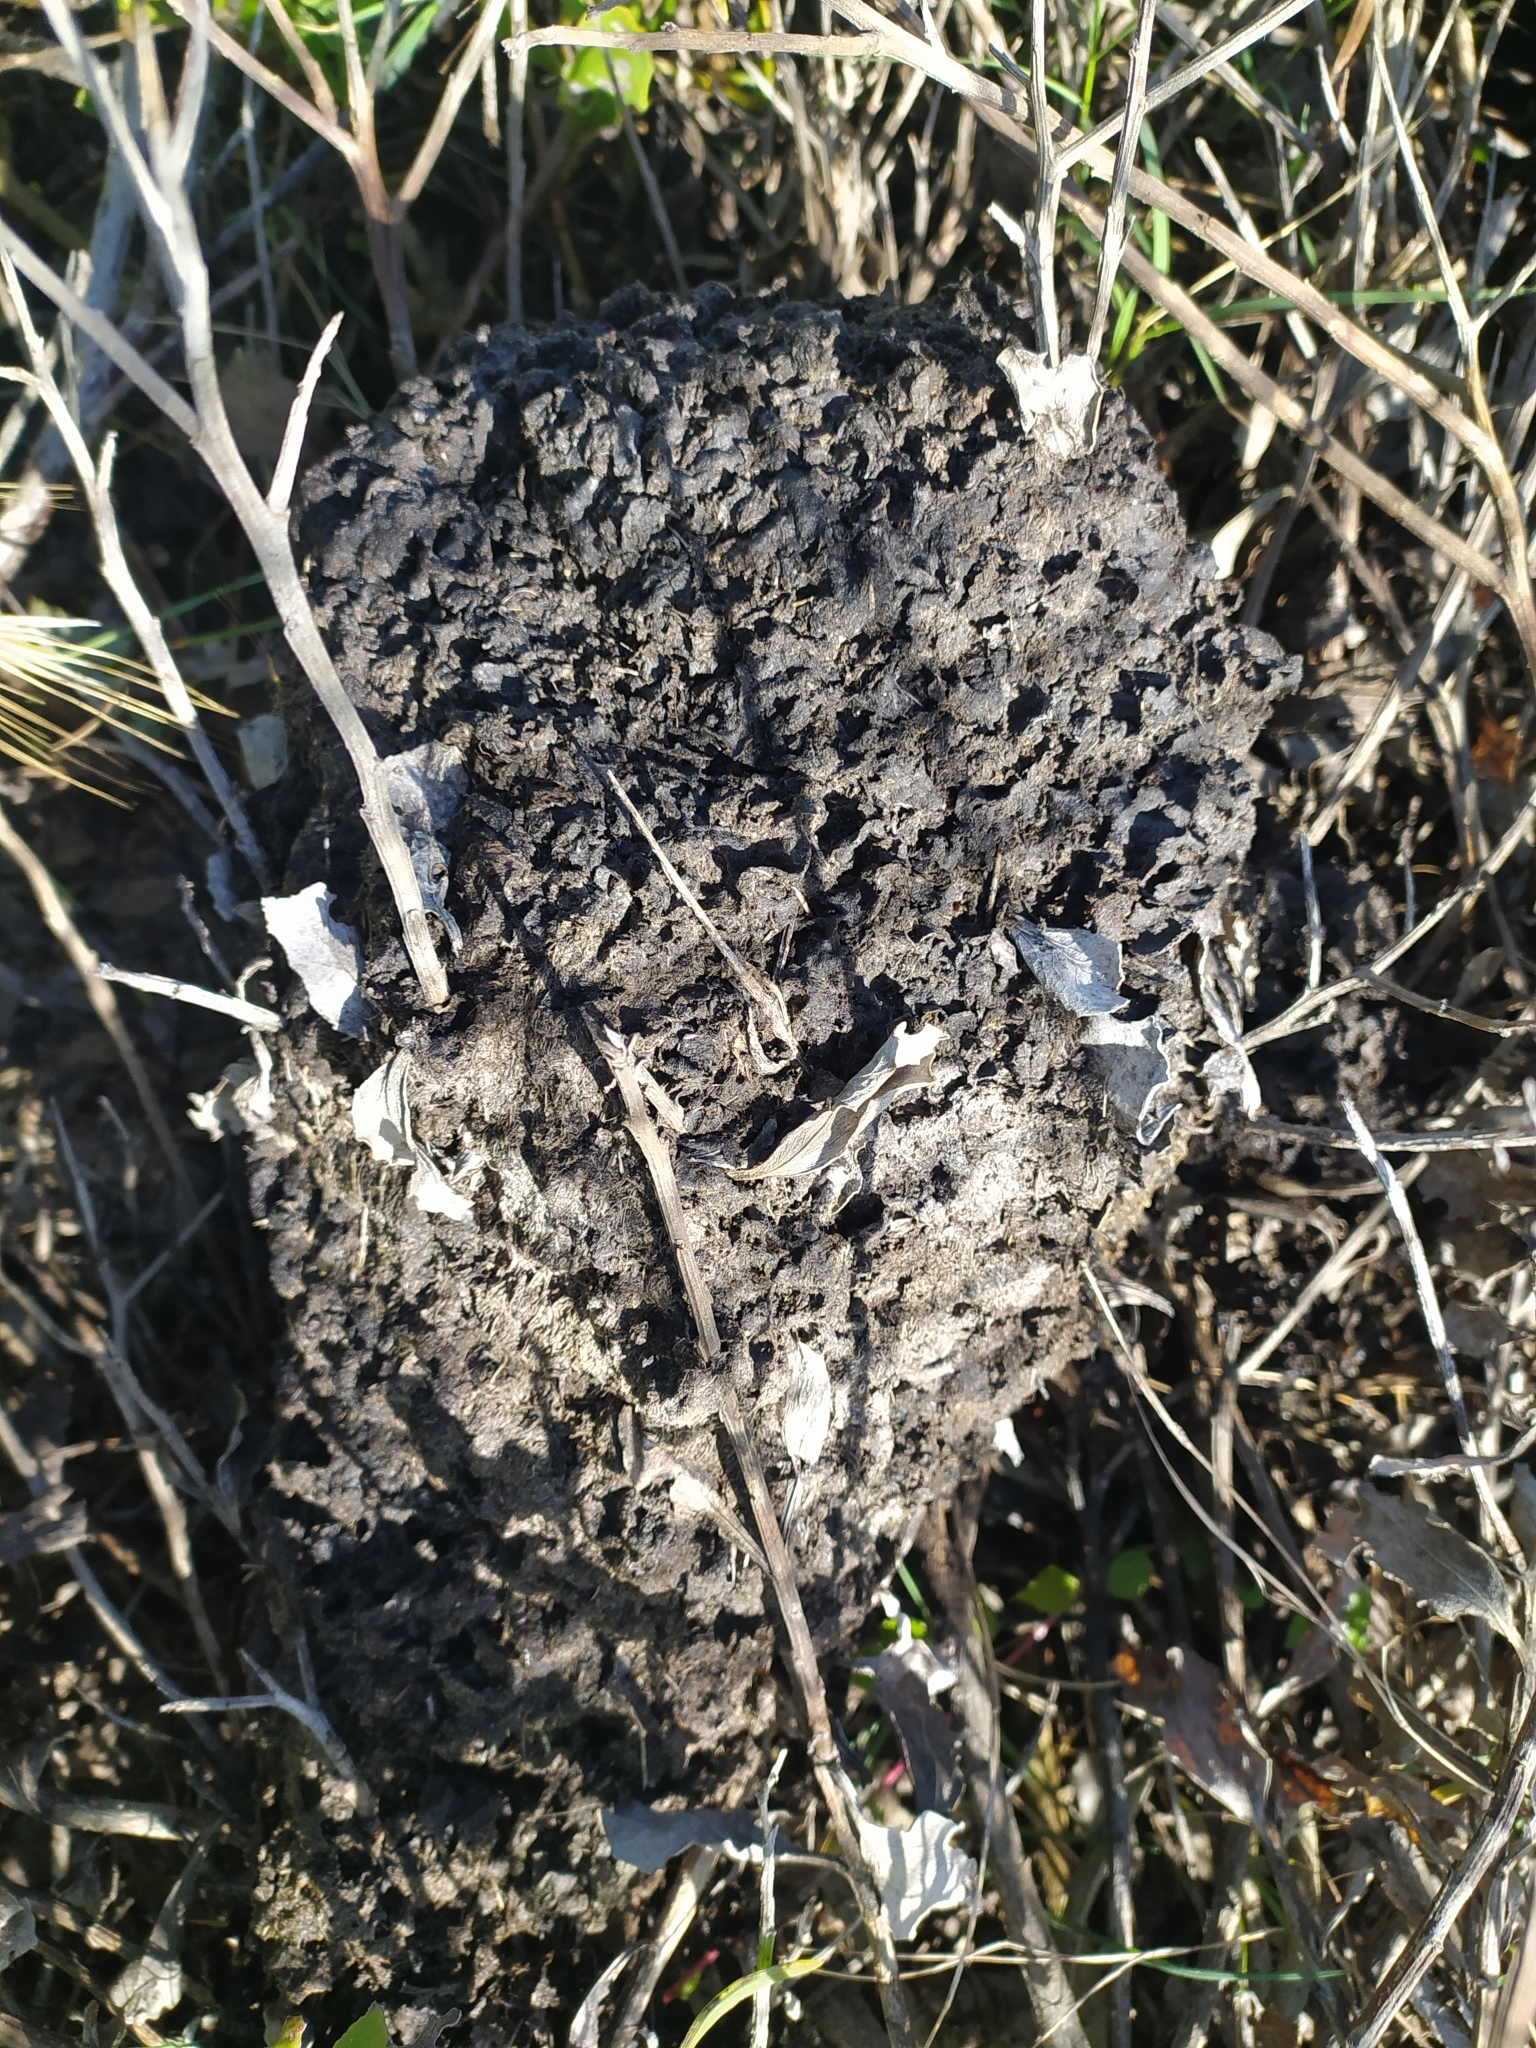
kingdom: Animalia
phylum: Arthropoda
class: Insecta
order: Hymenoptera
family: Formicidae
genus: Crematogaster
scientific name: Crematogaster peringueyi
